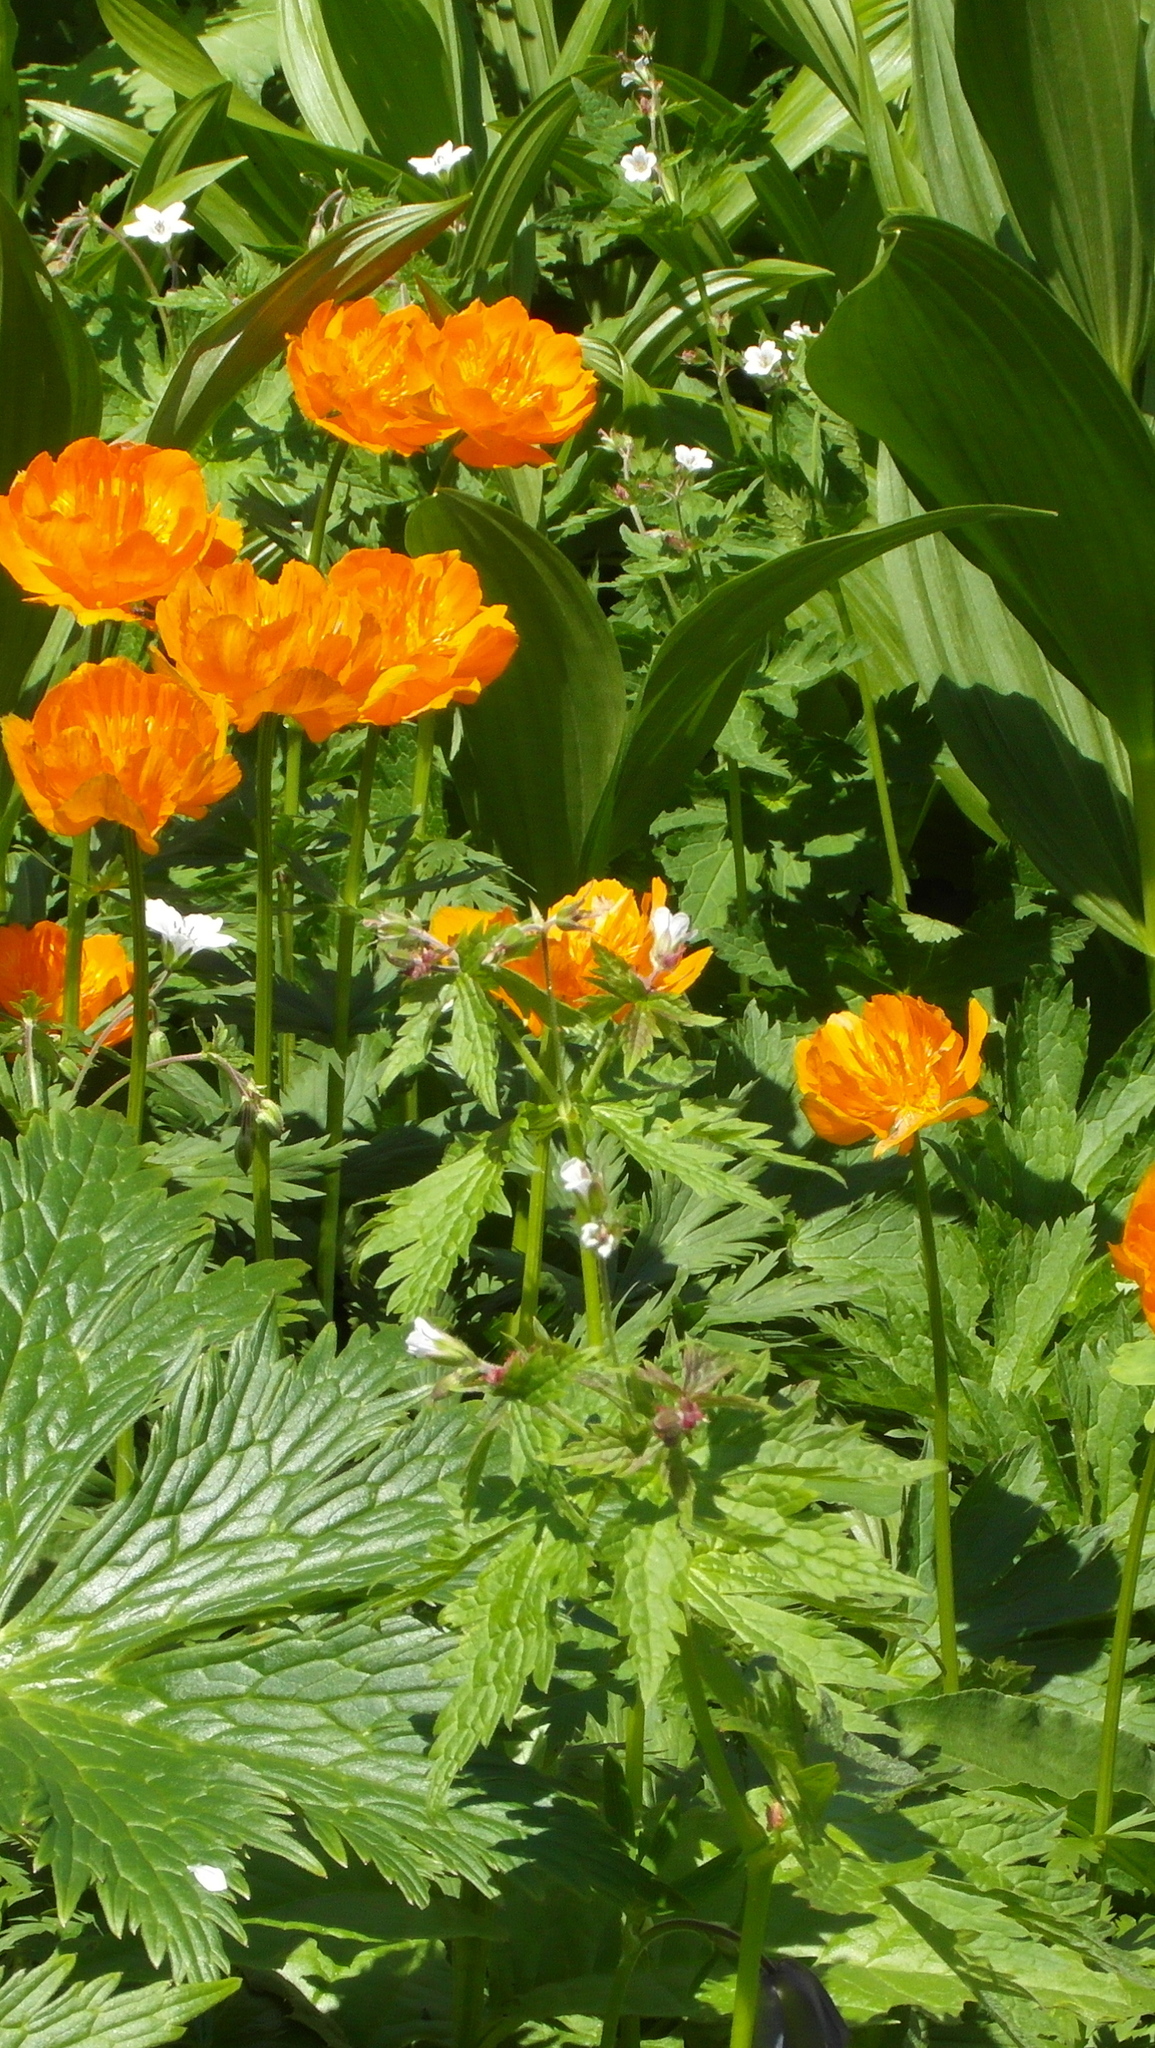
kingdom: Plantae
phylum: Tracheophyta
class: Magnoliopsida
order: Geraniales
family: Geraniaceae
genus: Geranium
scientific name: Geranium sylvaticum
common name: Wood crane's-bill
